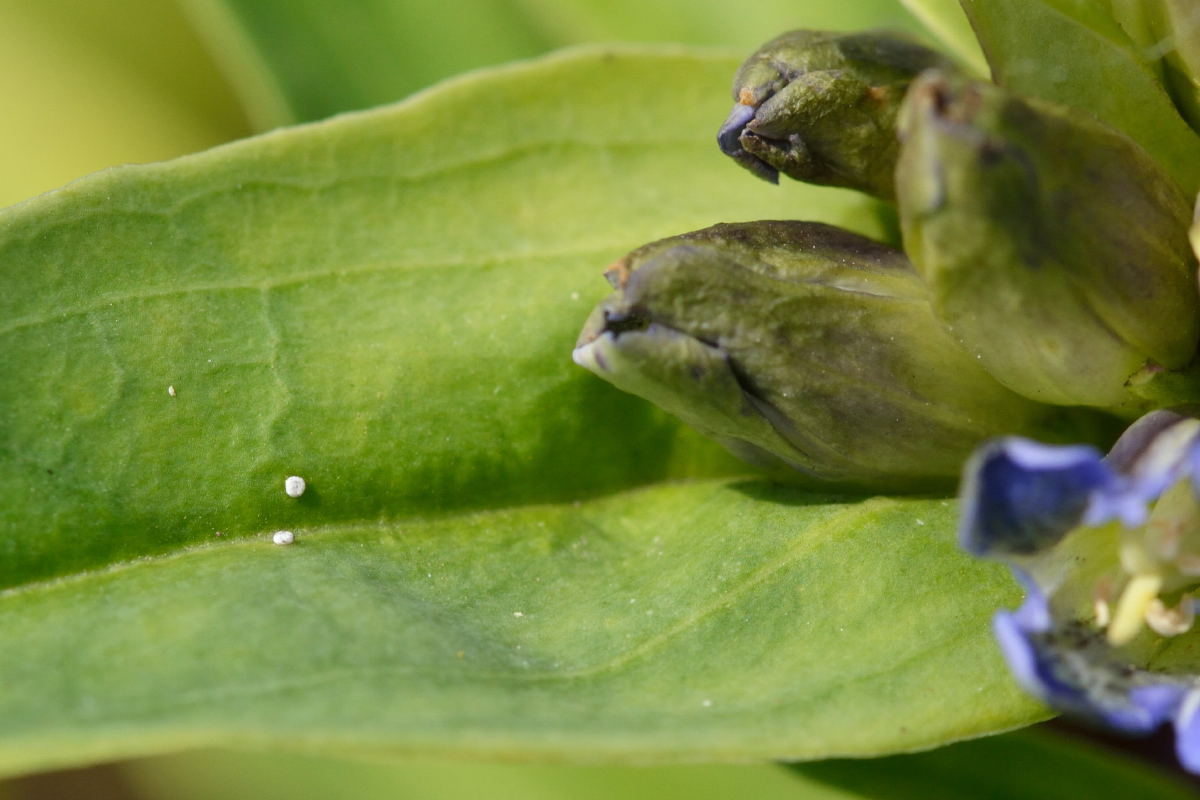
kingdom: Animalia
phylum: Arthropoda
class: Insecta
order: Lepidoptera
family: Lycaenidae
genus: Maculinea
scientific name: Maculinea alcon
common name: Alcon blue
